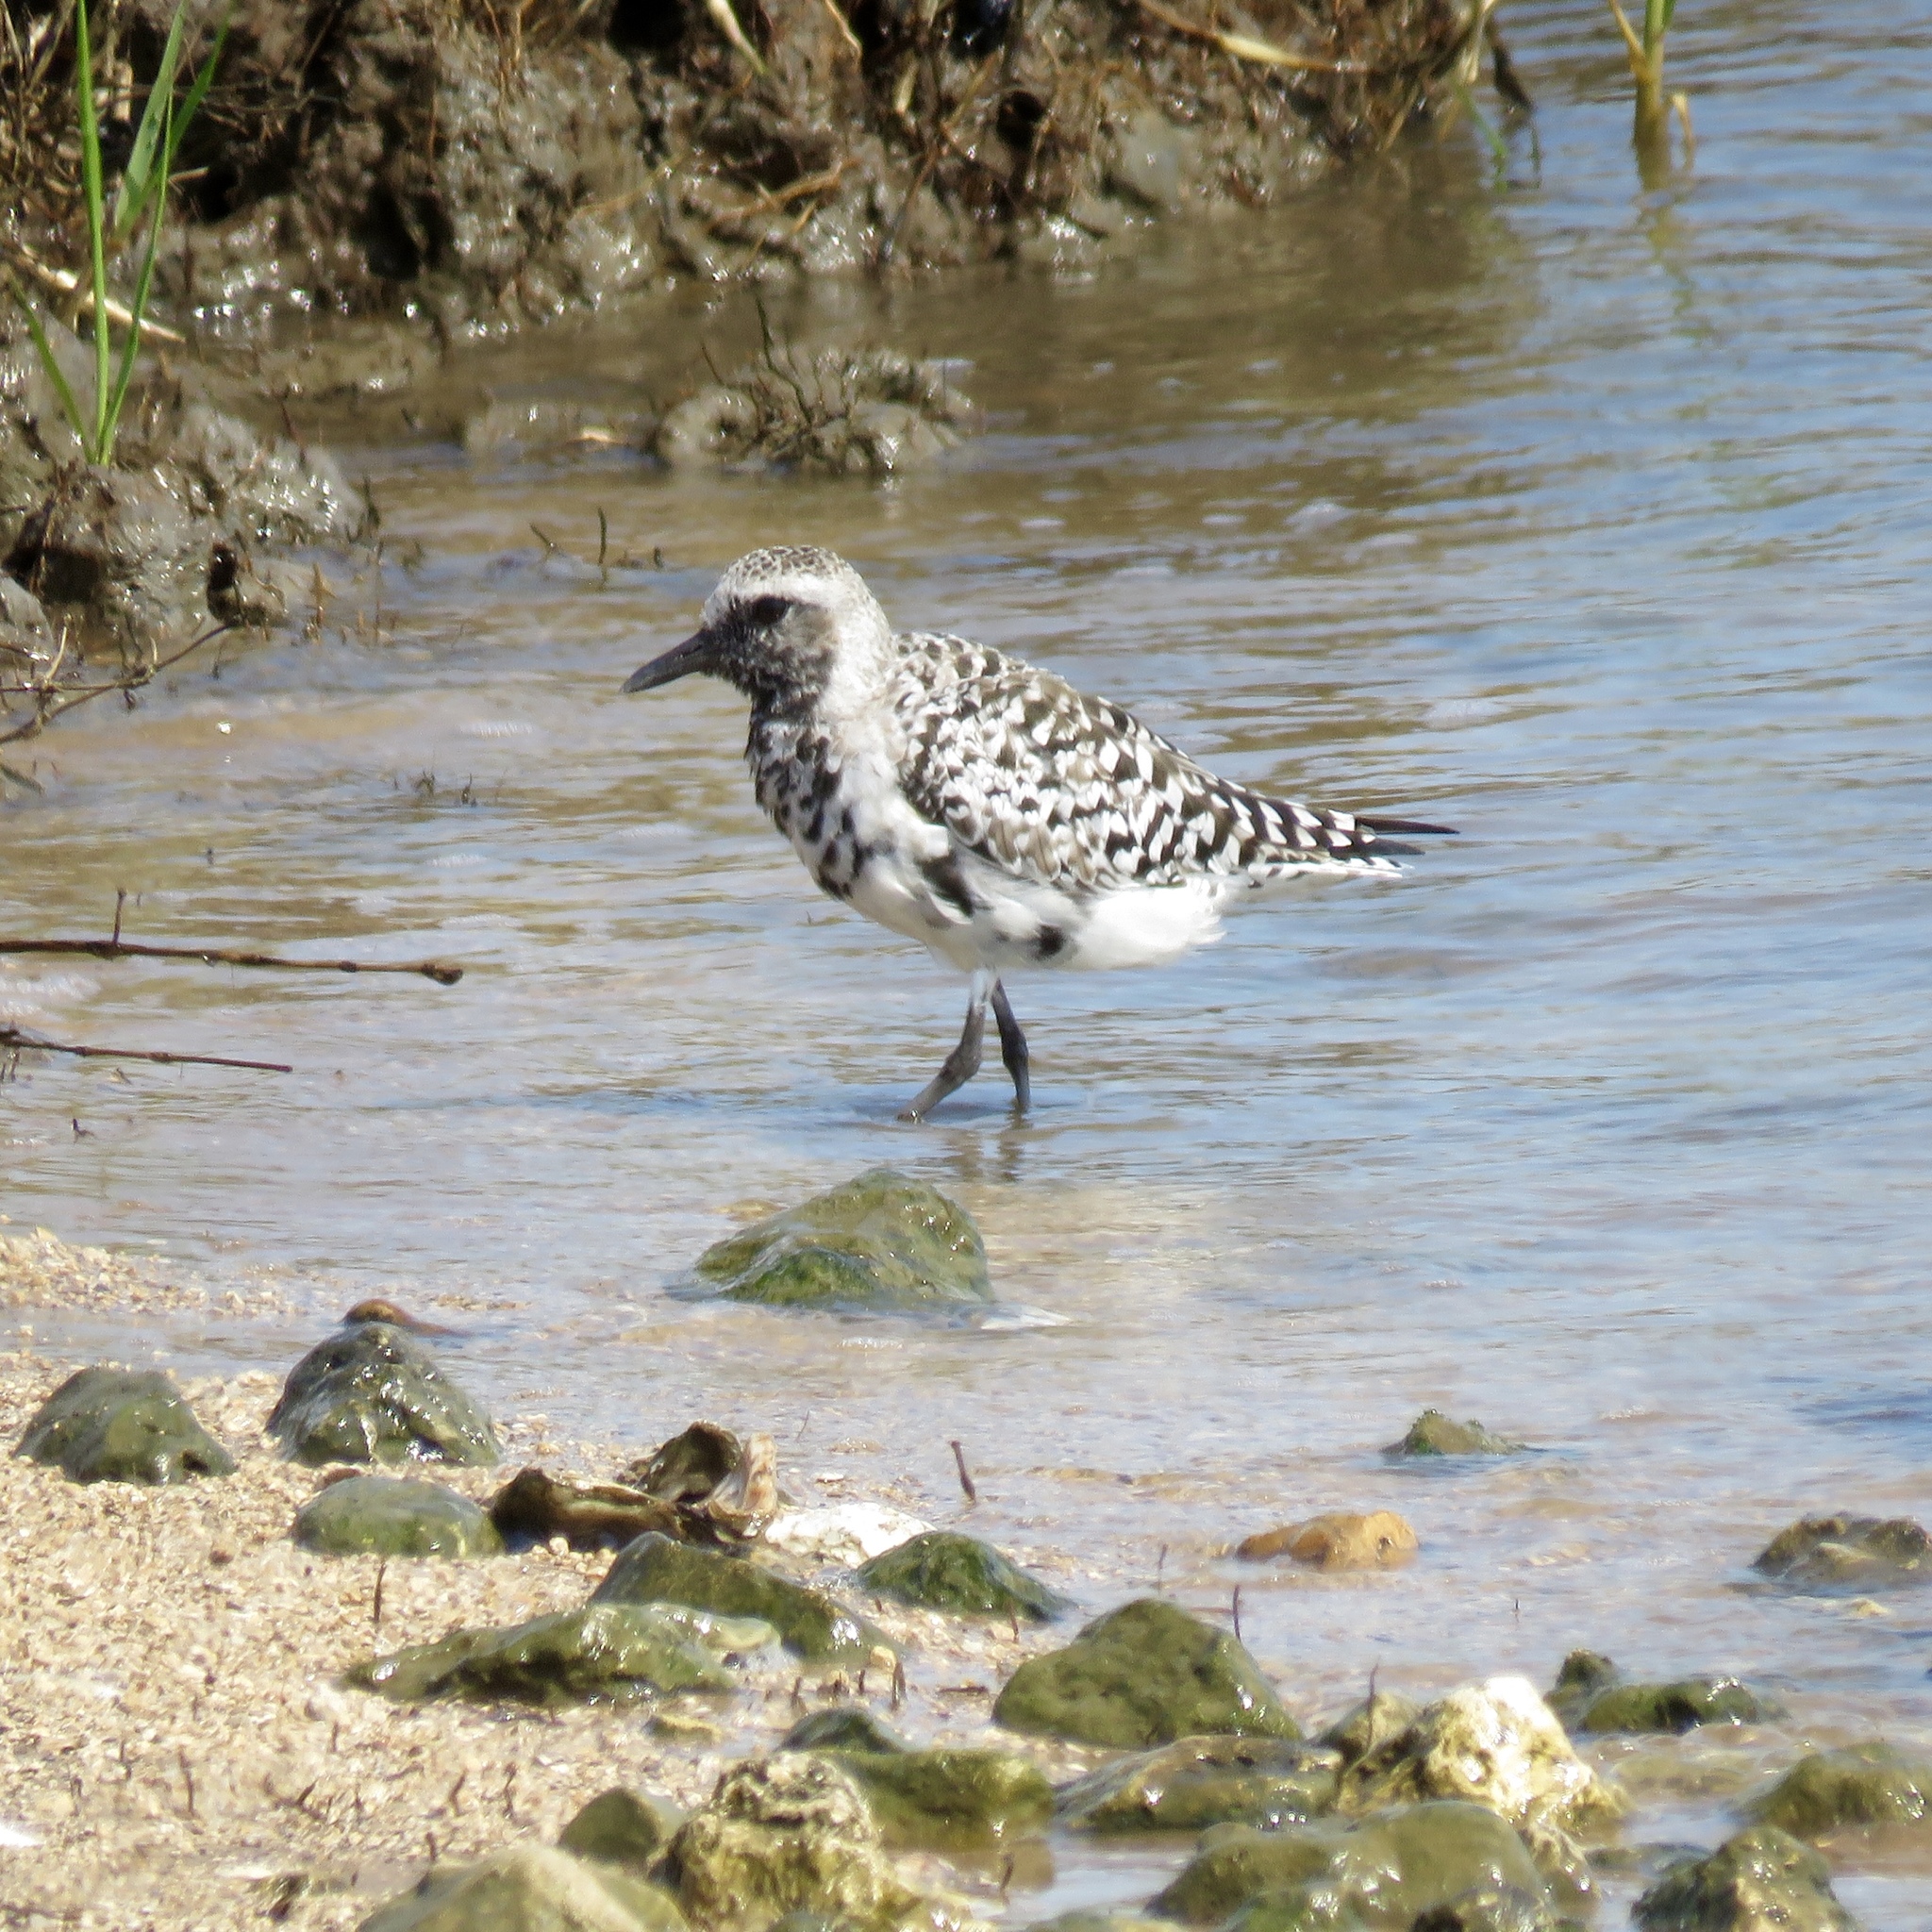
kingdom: Animalia
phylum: Chordata
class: Aves
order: Charadriiformes
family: Charadriidae
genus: Pluvialis
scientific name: Pluvialis squatarola
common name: Grey plover
